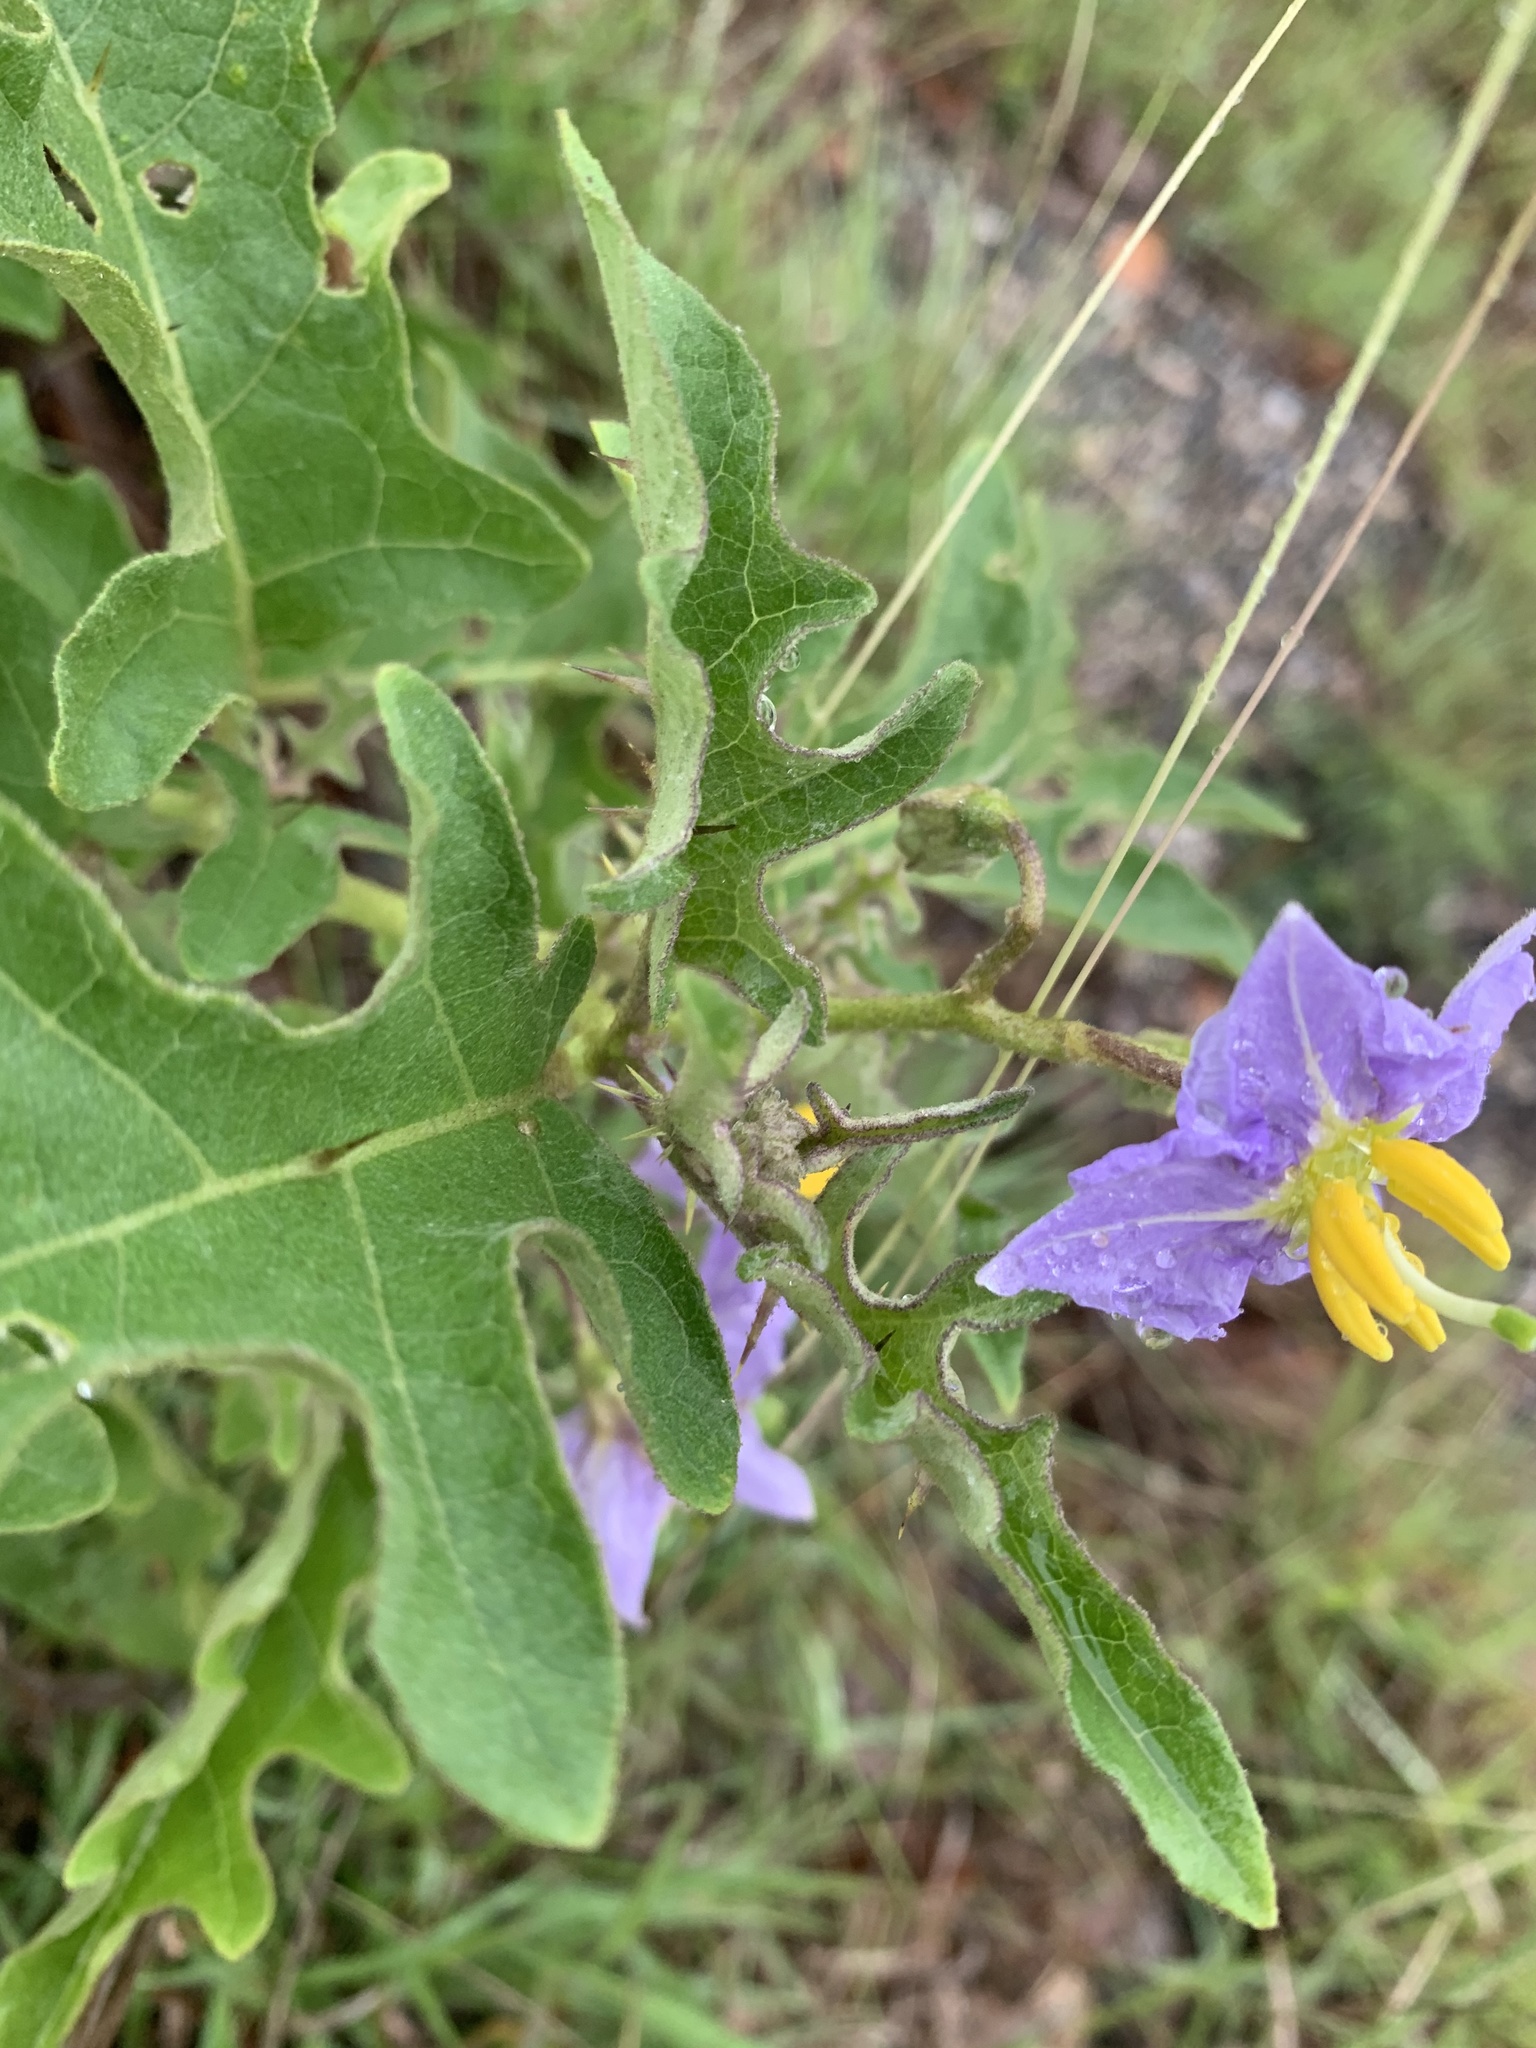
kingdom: Plantae
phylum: Tracheophyta
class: Magnoliopsida
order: Solanales
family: Solanaceae
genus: Solanum
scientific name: Solanum dimidiatum
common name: Carolina horse-nettle
